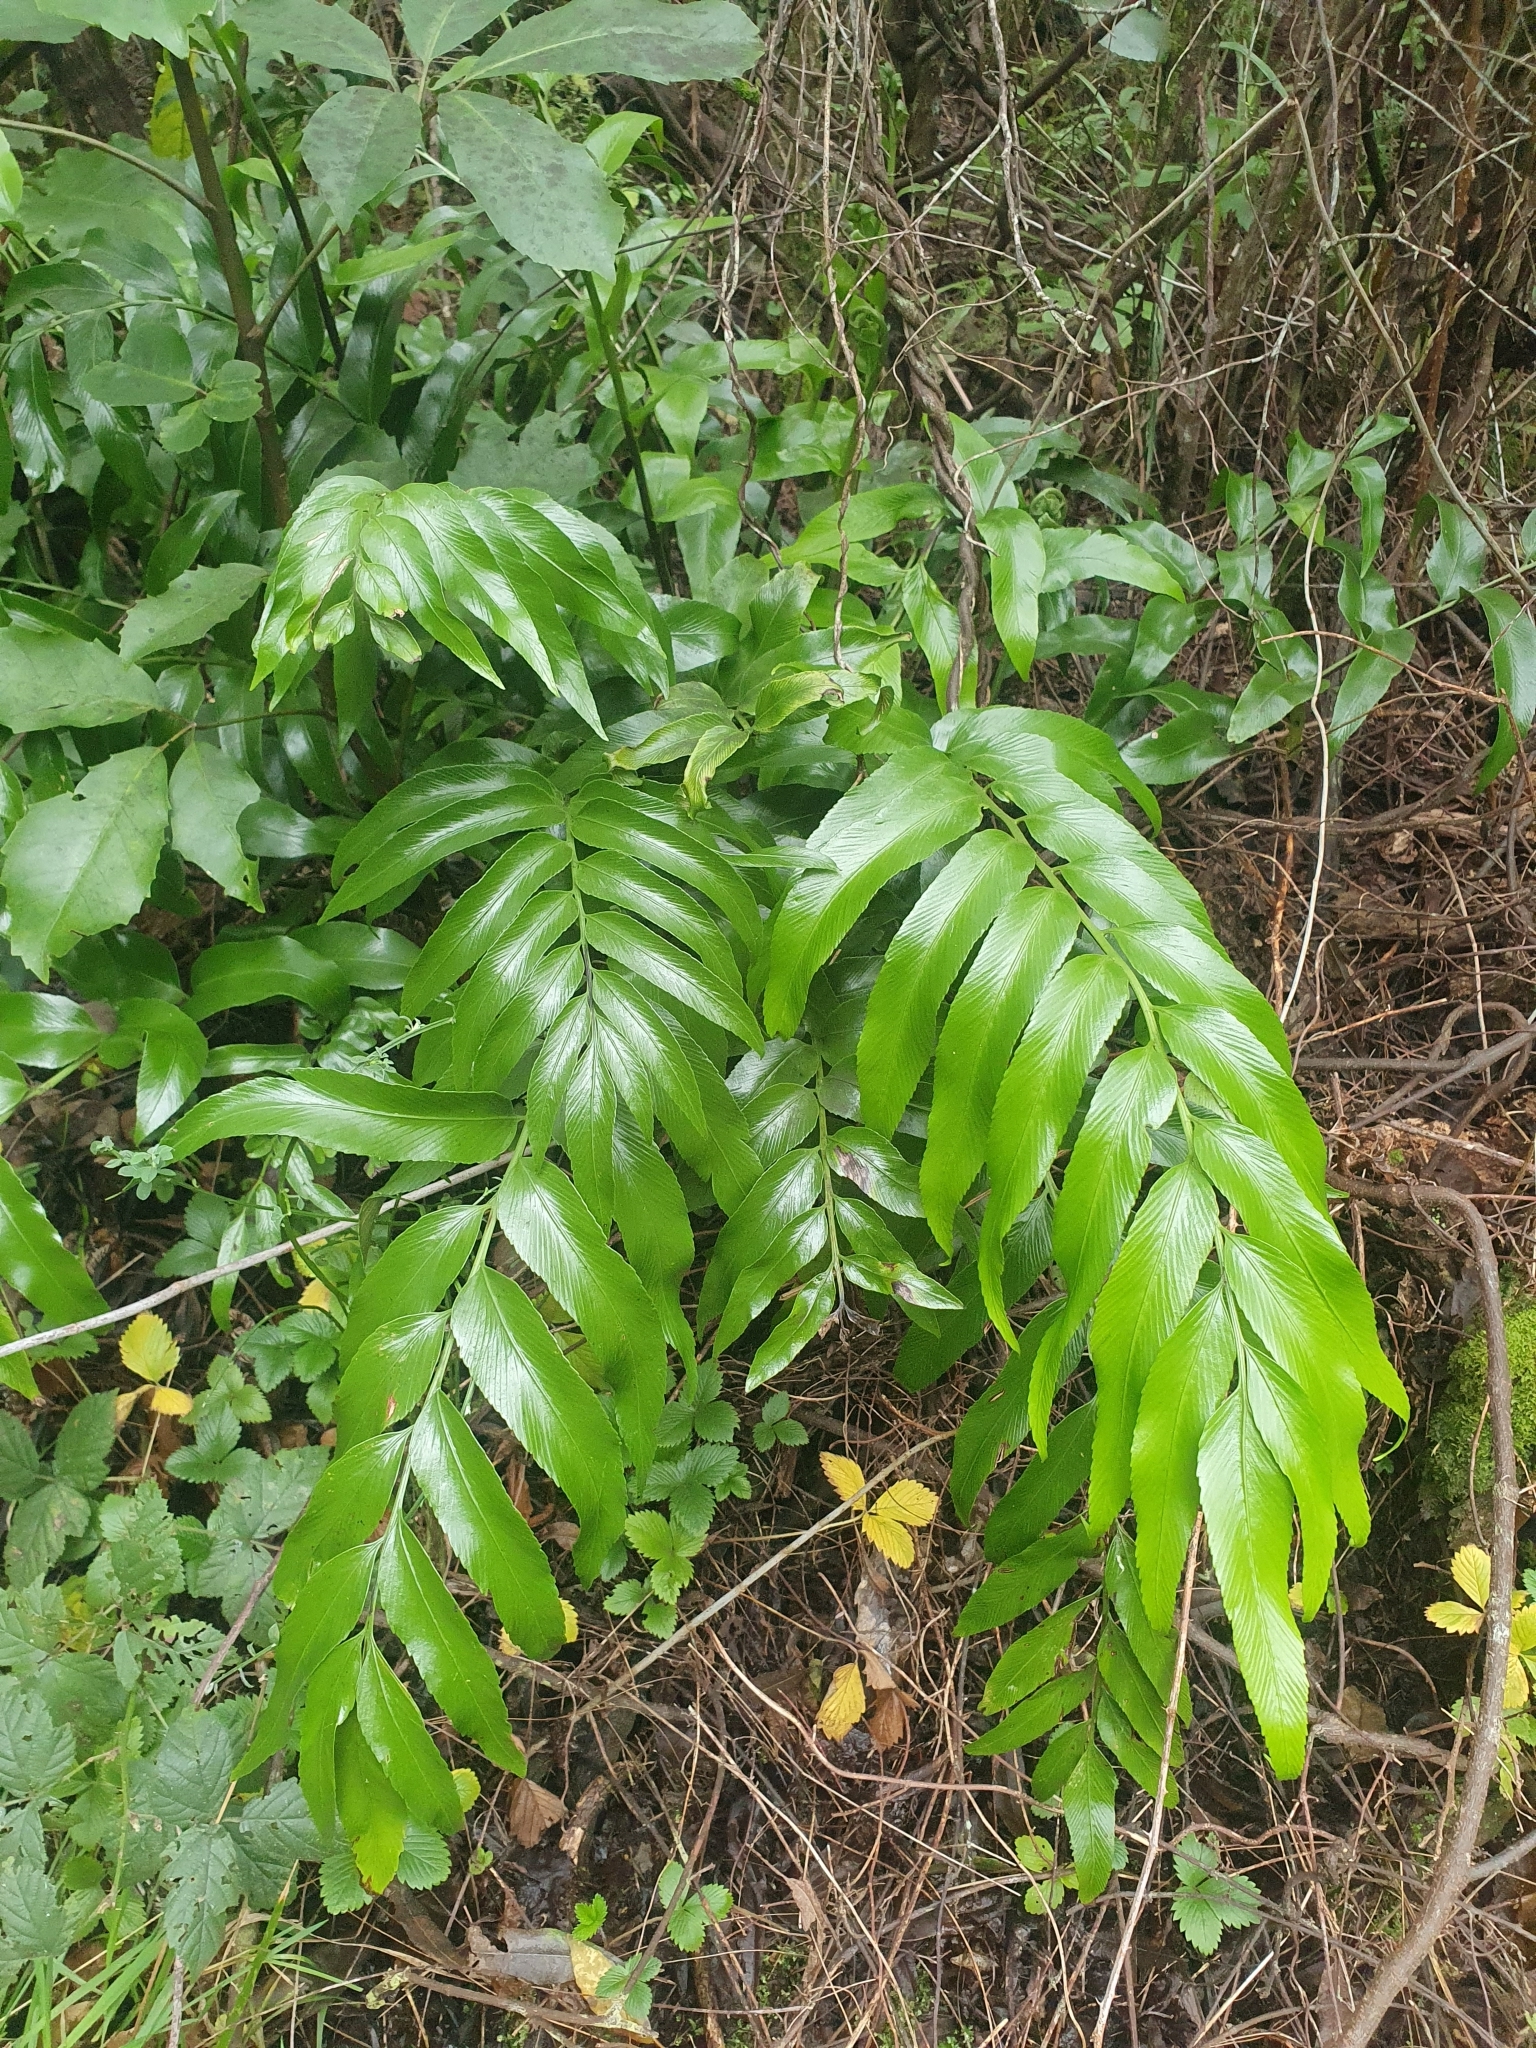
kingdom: Plantae
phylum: Tracheophyta
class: Polypodiopsida
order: Polypodiales
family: Aspleniaceae
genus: Asplenium
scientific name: Asplenium oblongifolium
